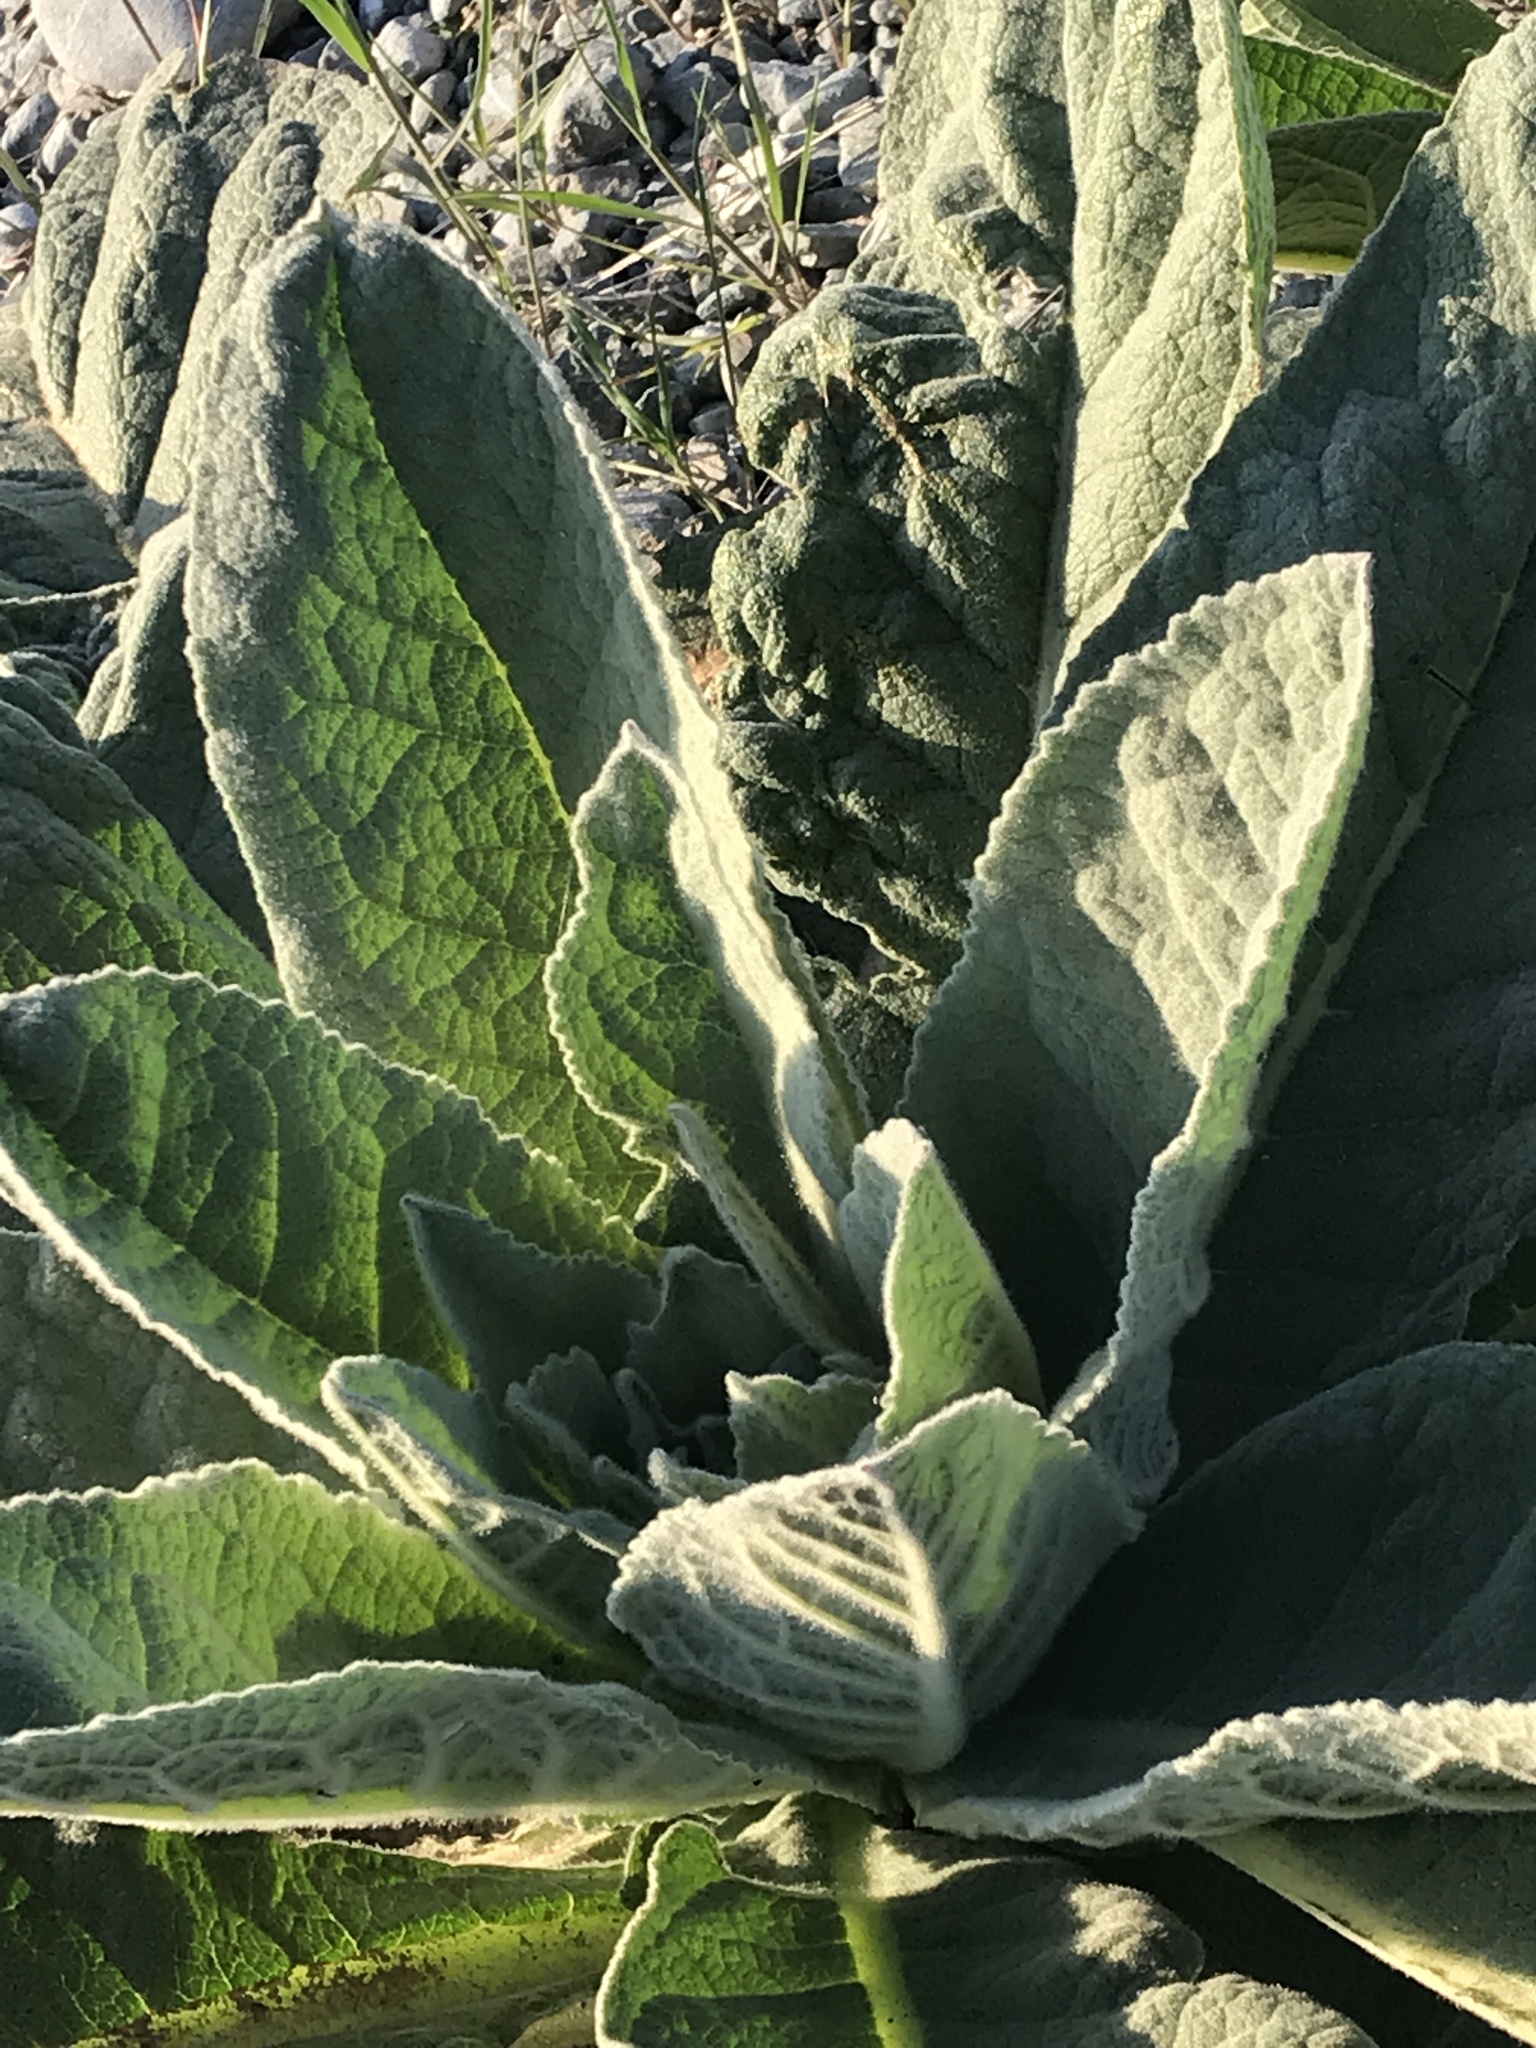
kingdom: Plantae
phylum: Tracheophyta
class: Magnoliopsida
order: Lamiales
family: Scrophulariaceae
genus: Verbascum
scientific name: Verbascum thapsus
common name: Common mullein
